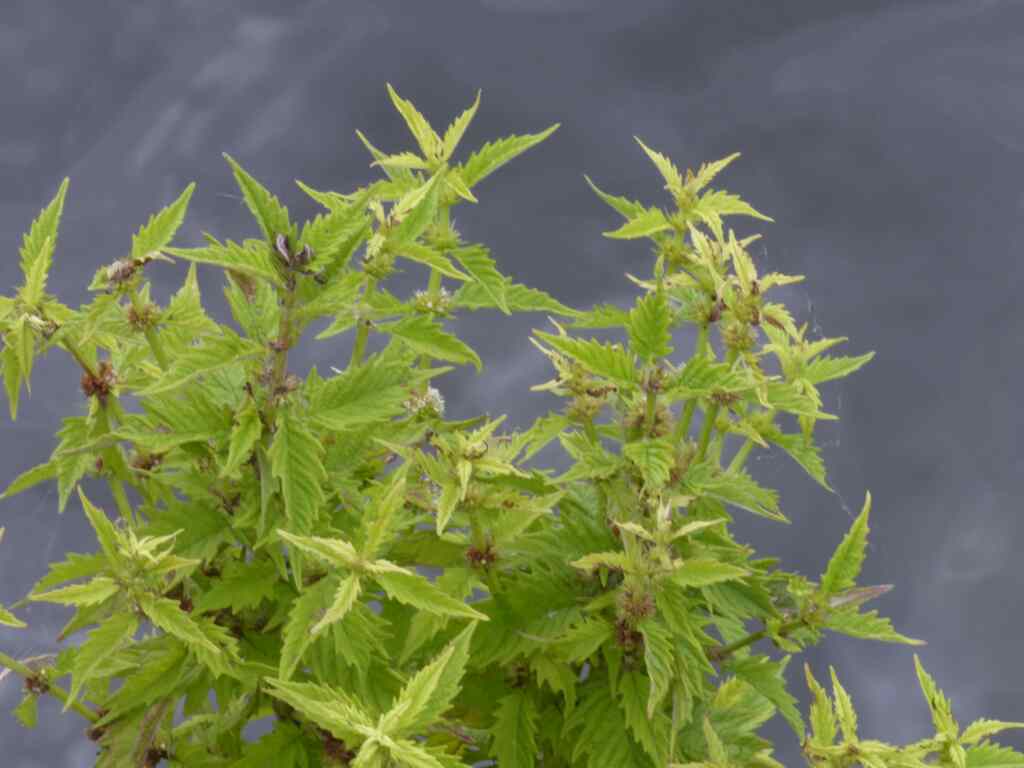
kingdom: Plantae
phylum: Tracheophyta
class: Magnoliopsida
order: Lamiales
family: Lamiaceae
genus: Lycopus
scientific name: Lycopus europaeus
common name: European bugleweed
